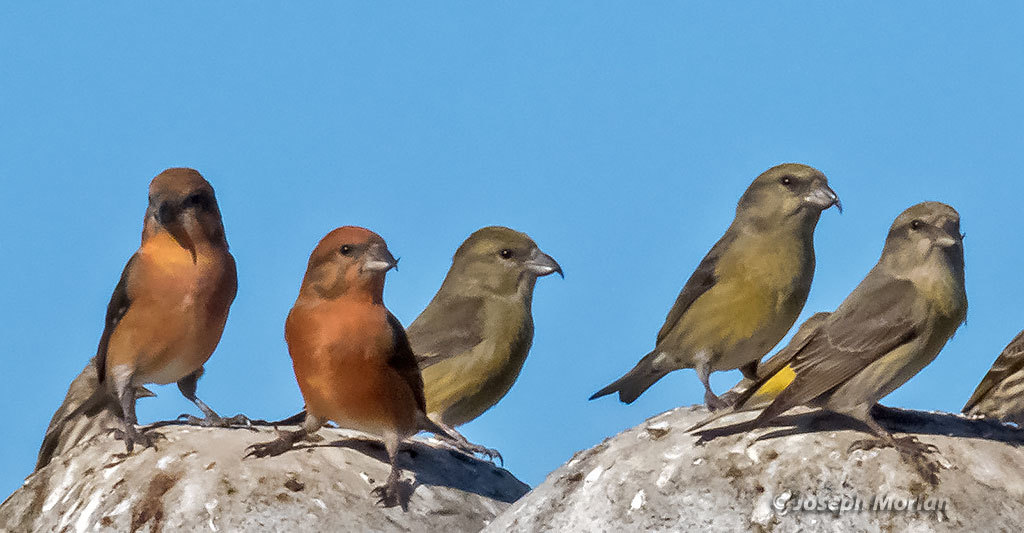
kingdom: Animalia
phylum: Chordata
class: Aves
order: Passeriformes
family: Fringillidae
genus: Loxia
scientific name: Loxia curvirostra
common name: Red crossbill
